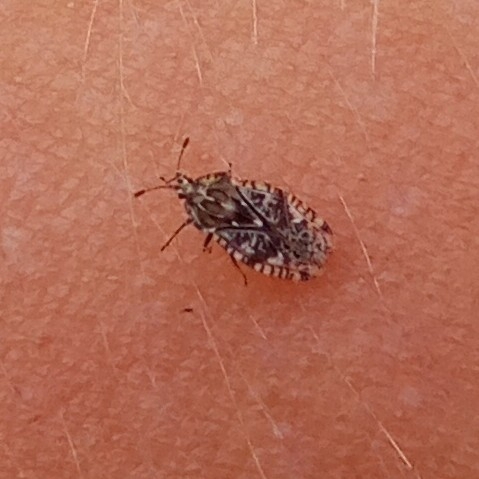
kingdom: Animalia
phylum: Arthropoda
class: Insecta
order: Hemiptera
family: Tingidae
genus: Tingis
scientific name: Tingis cardui
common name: Spear thistle lacebug
